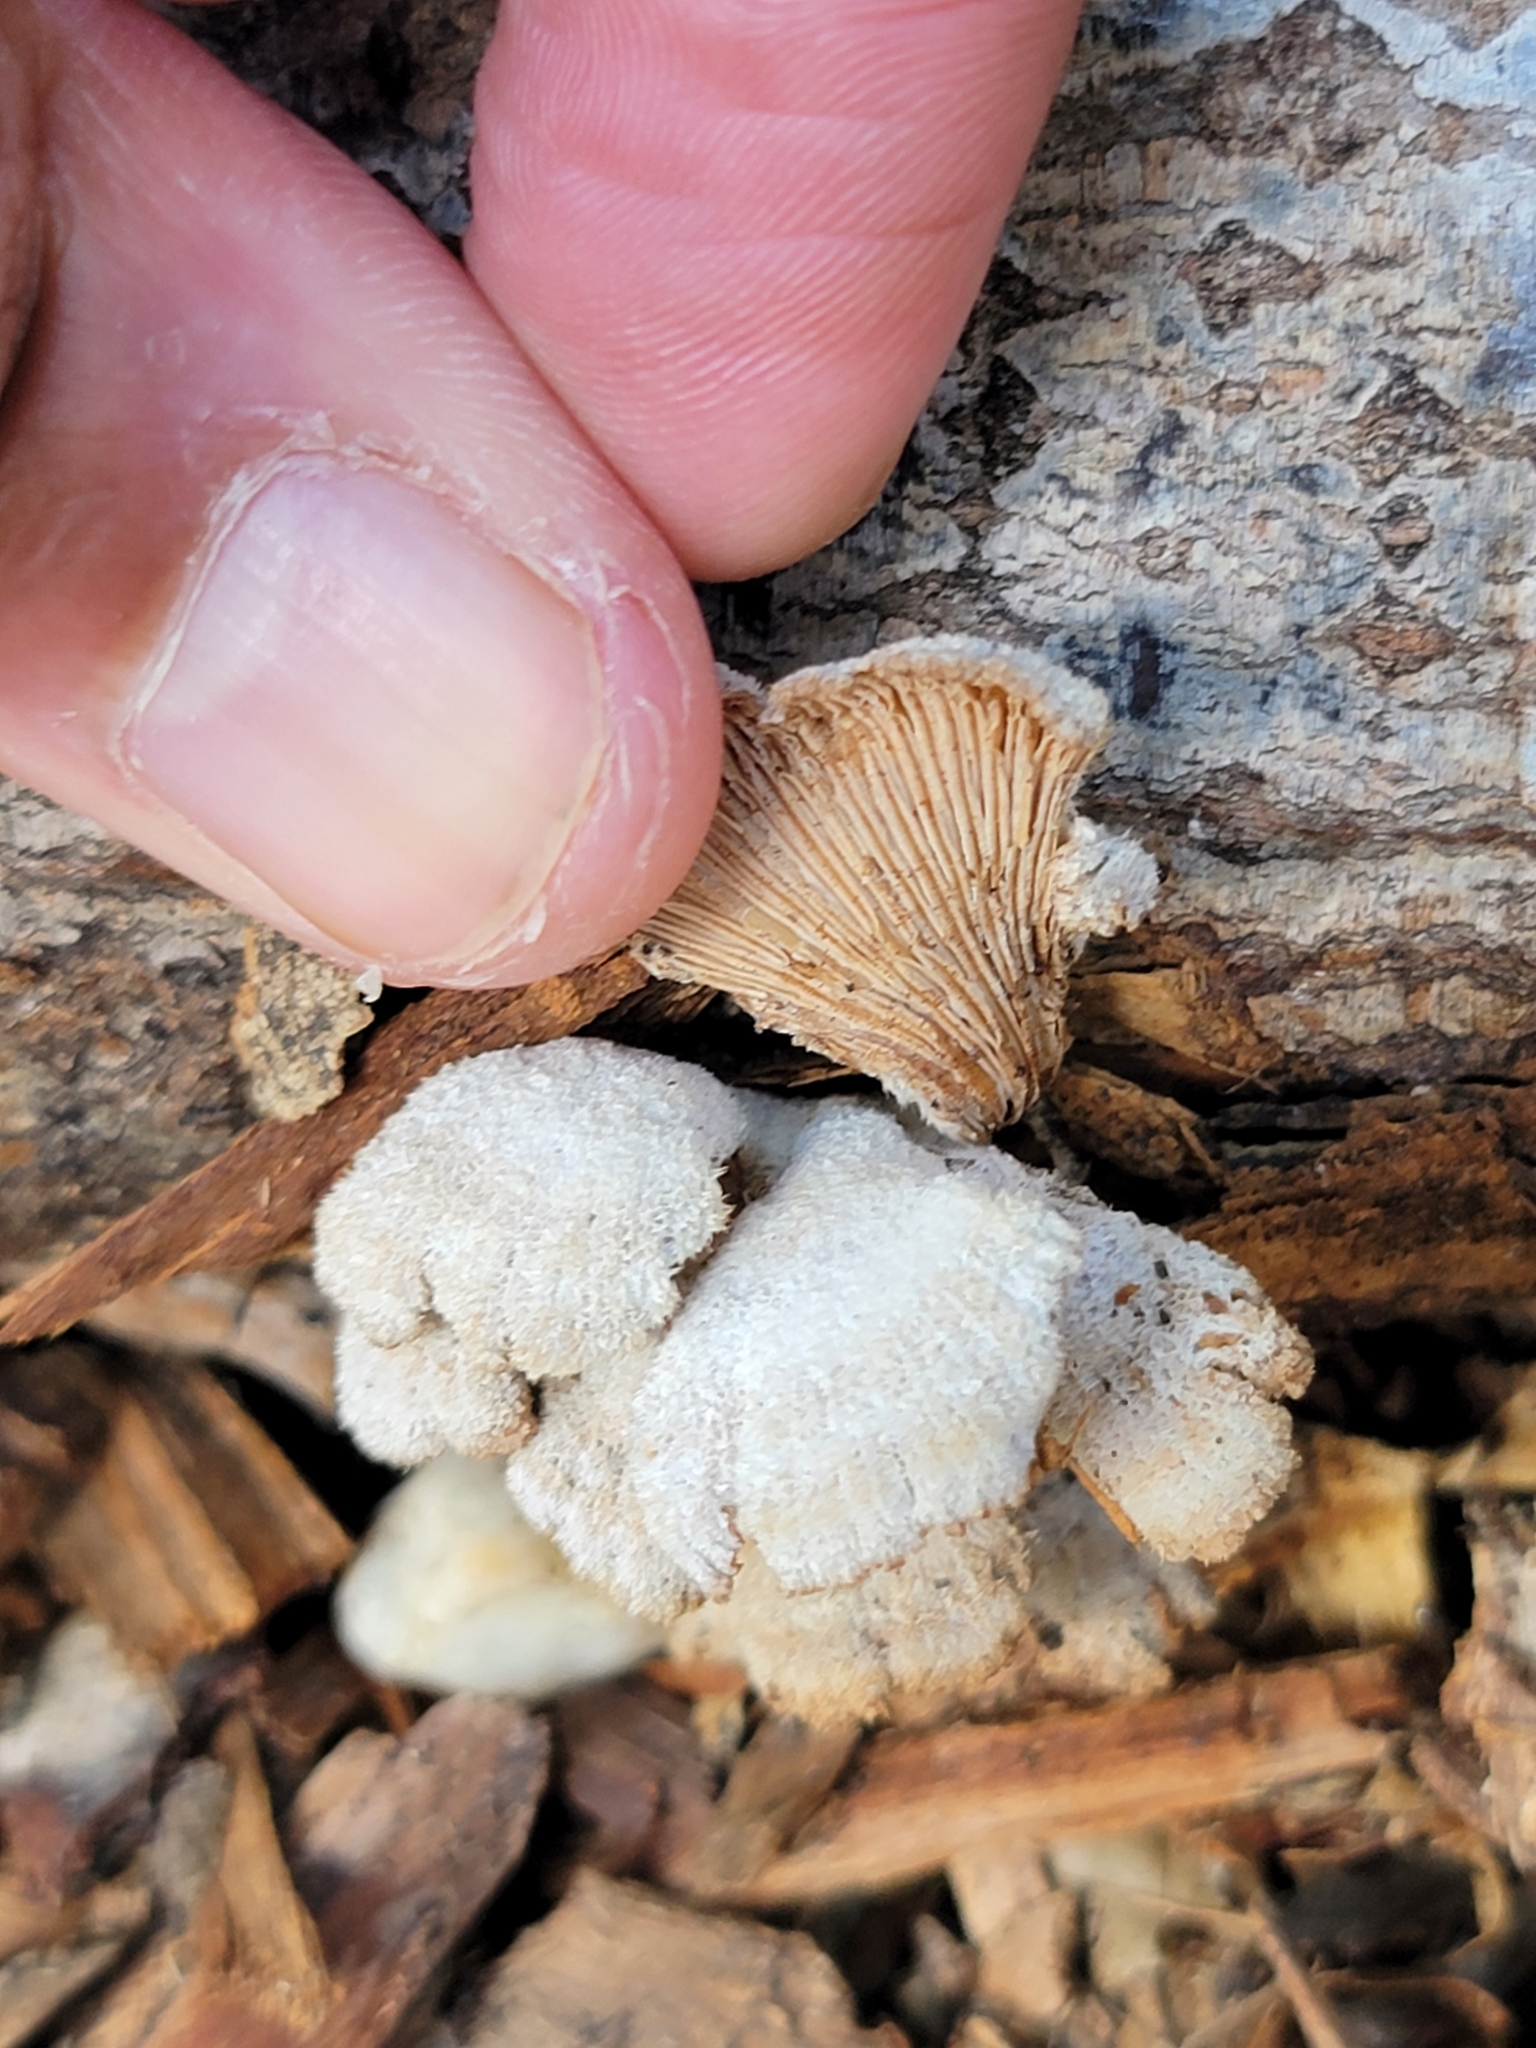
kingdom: Fungi
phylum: Basidiomycota
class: Agaricomycetes
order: Agaricales
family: Schizophyllaceae
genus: Schizophyllum
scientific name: Schizophyllum commune
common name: Common porecrust
